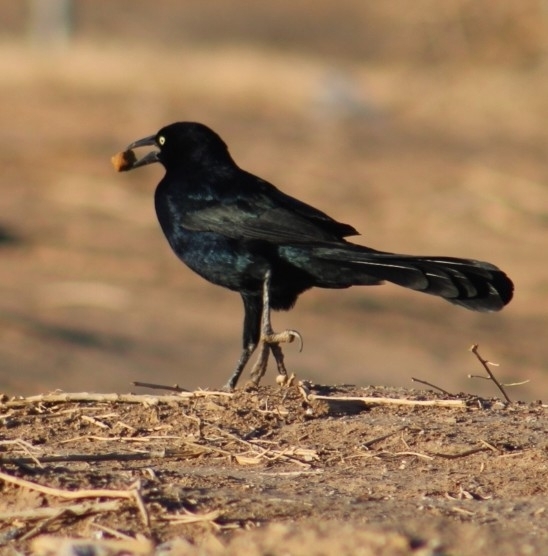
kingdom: Animalia
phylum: Chordata
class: Aves
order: Passeriformes
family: Icteridae
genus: Quiscalus
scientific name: Quiscalus mexicanus
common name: Great-tailed grackle
